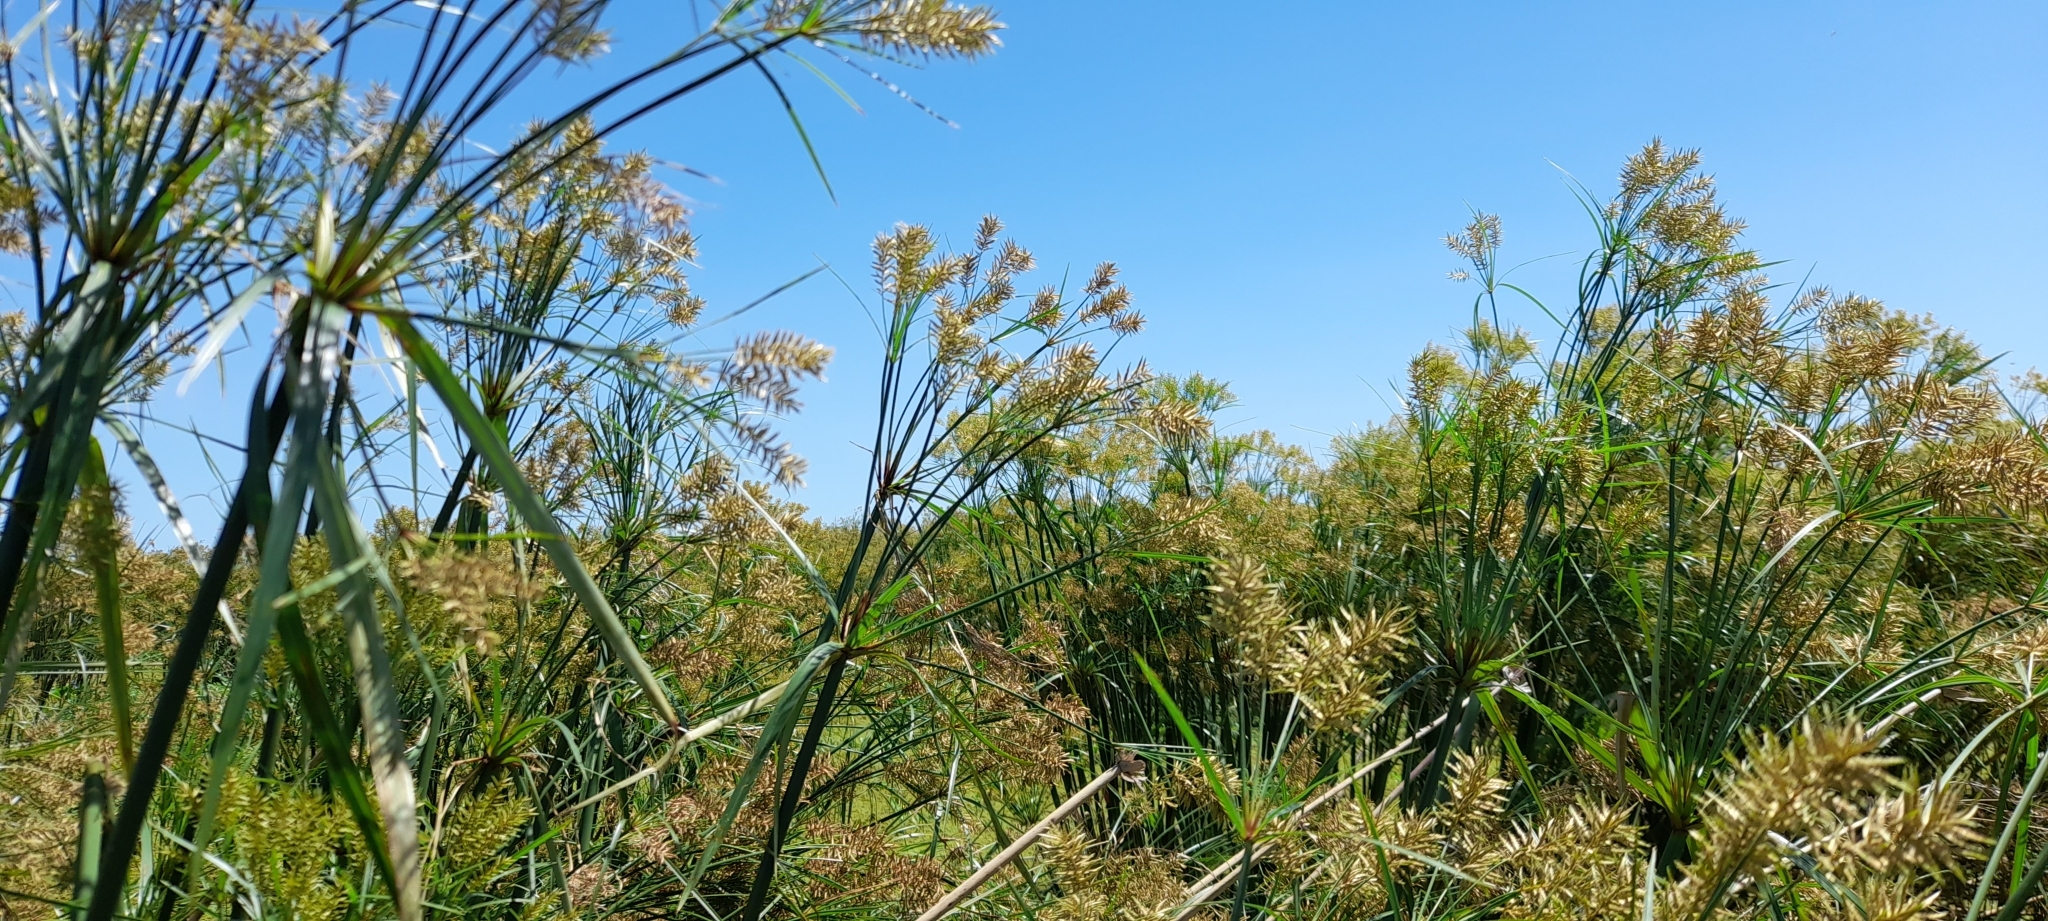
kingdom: Plantae
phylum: Tracheophyta
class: Liliopsida
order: Poales
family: Cyperaceae
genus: Cyperus
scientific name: Cyperus giganteus
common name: Giant flat sedge
